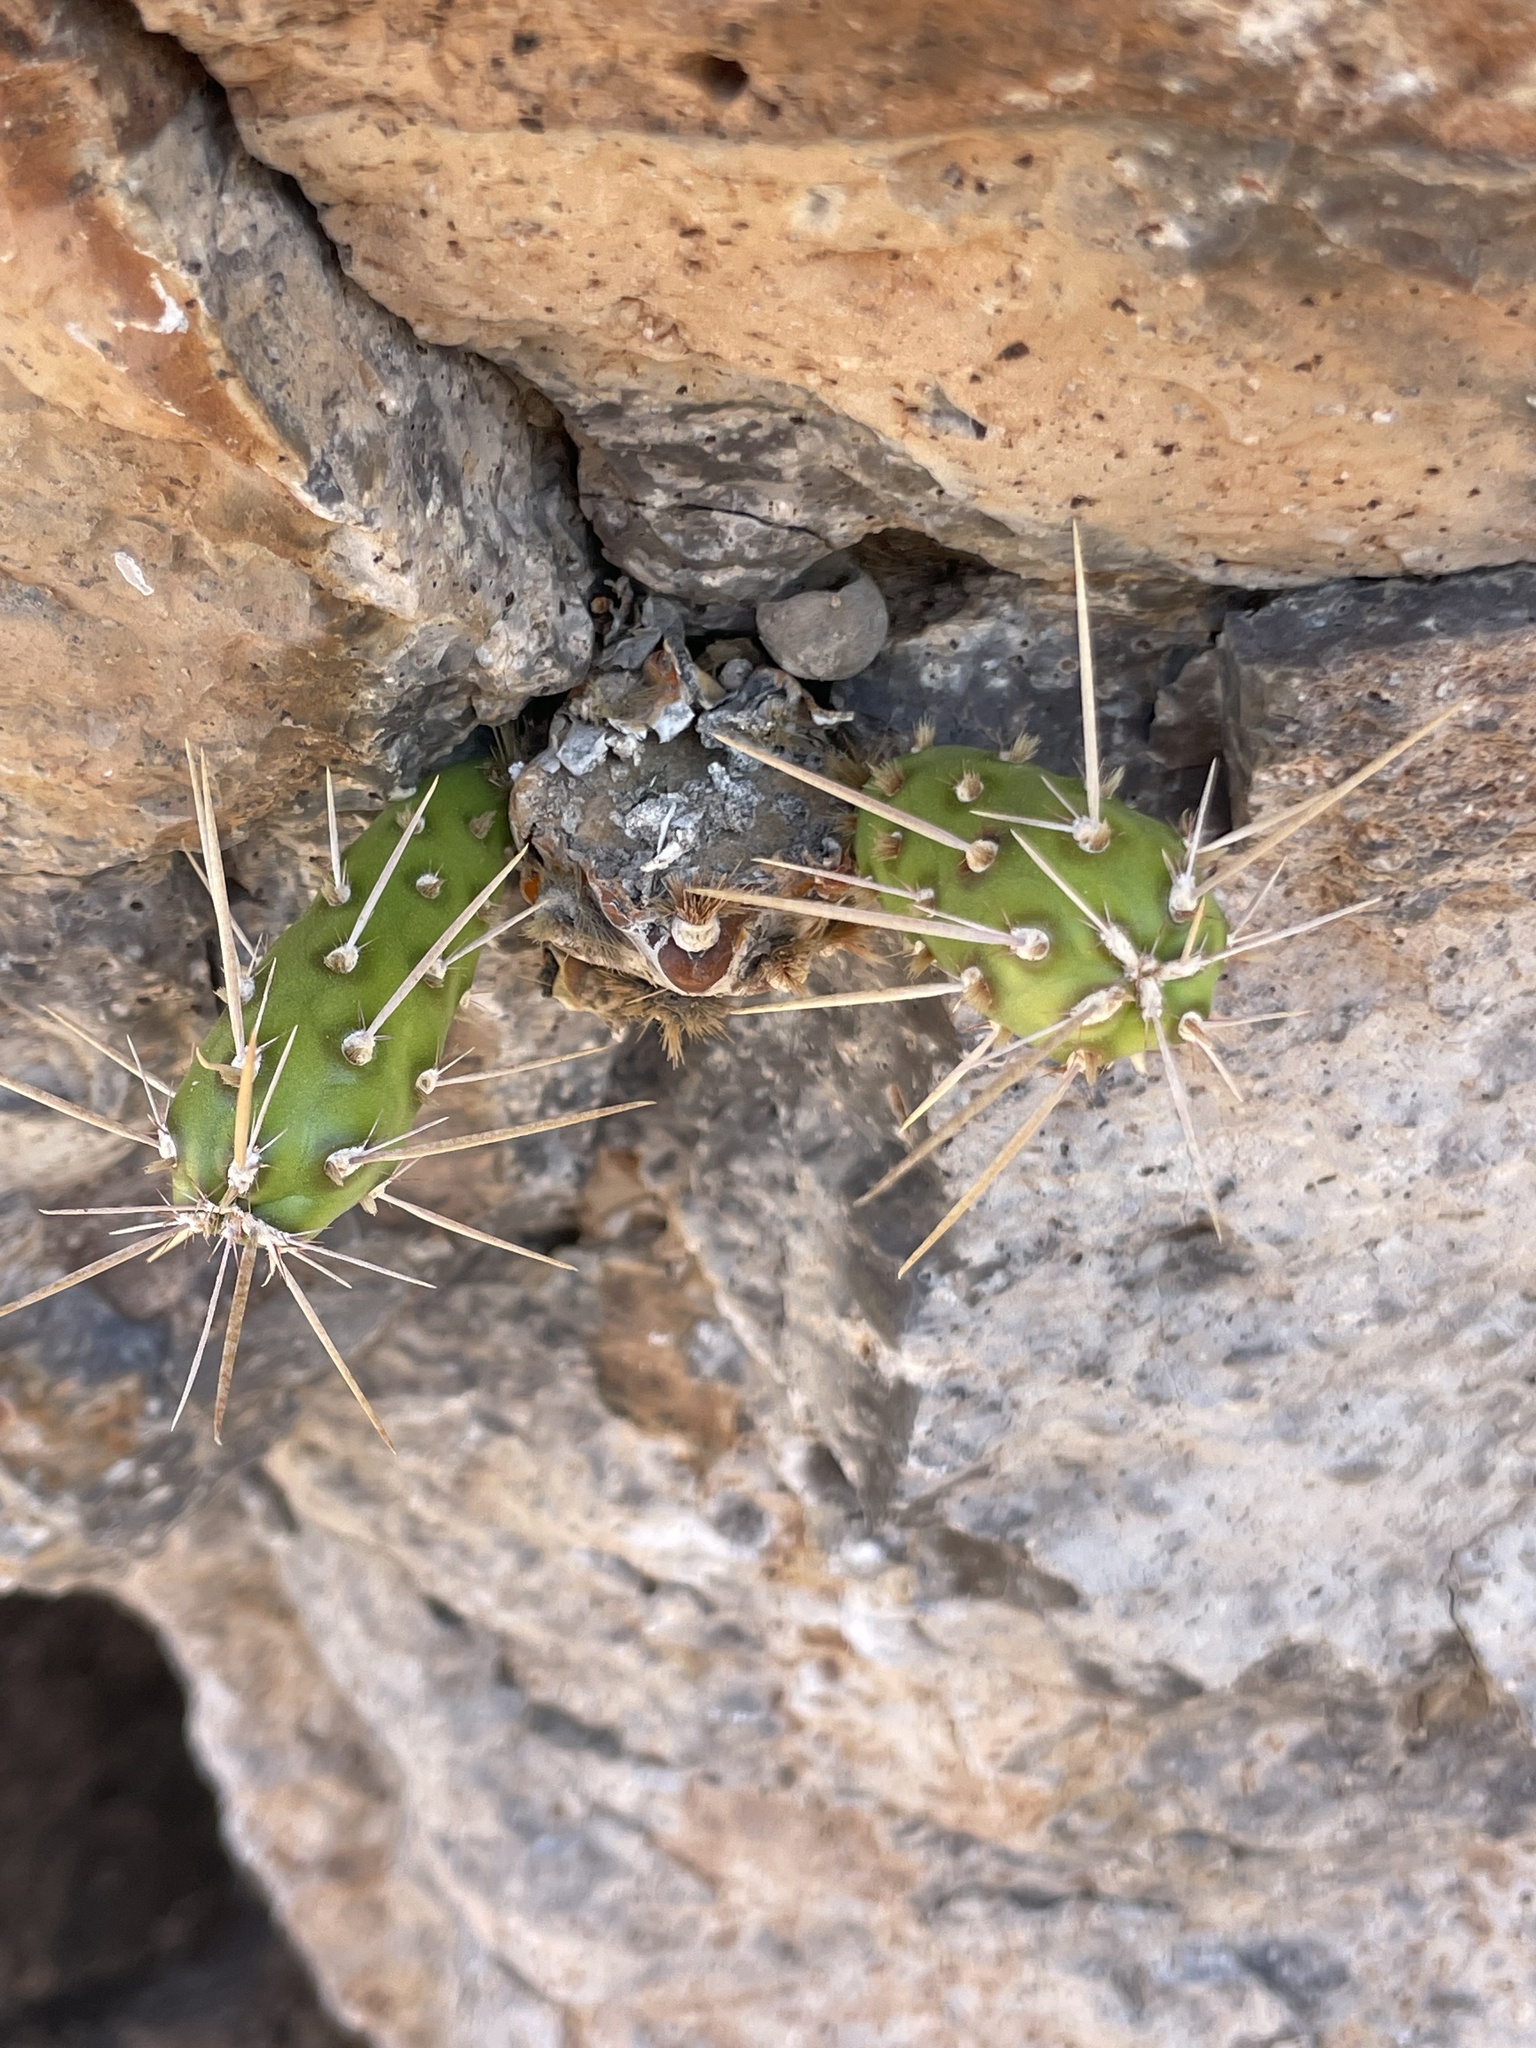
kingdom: Plantae
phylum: Tracheophyta
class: Magnoliopsida
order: Caryophyllales
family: Cactaceae
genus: Cylindropuntia
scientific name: Cylindropuntia alcahes
